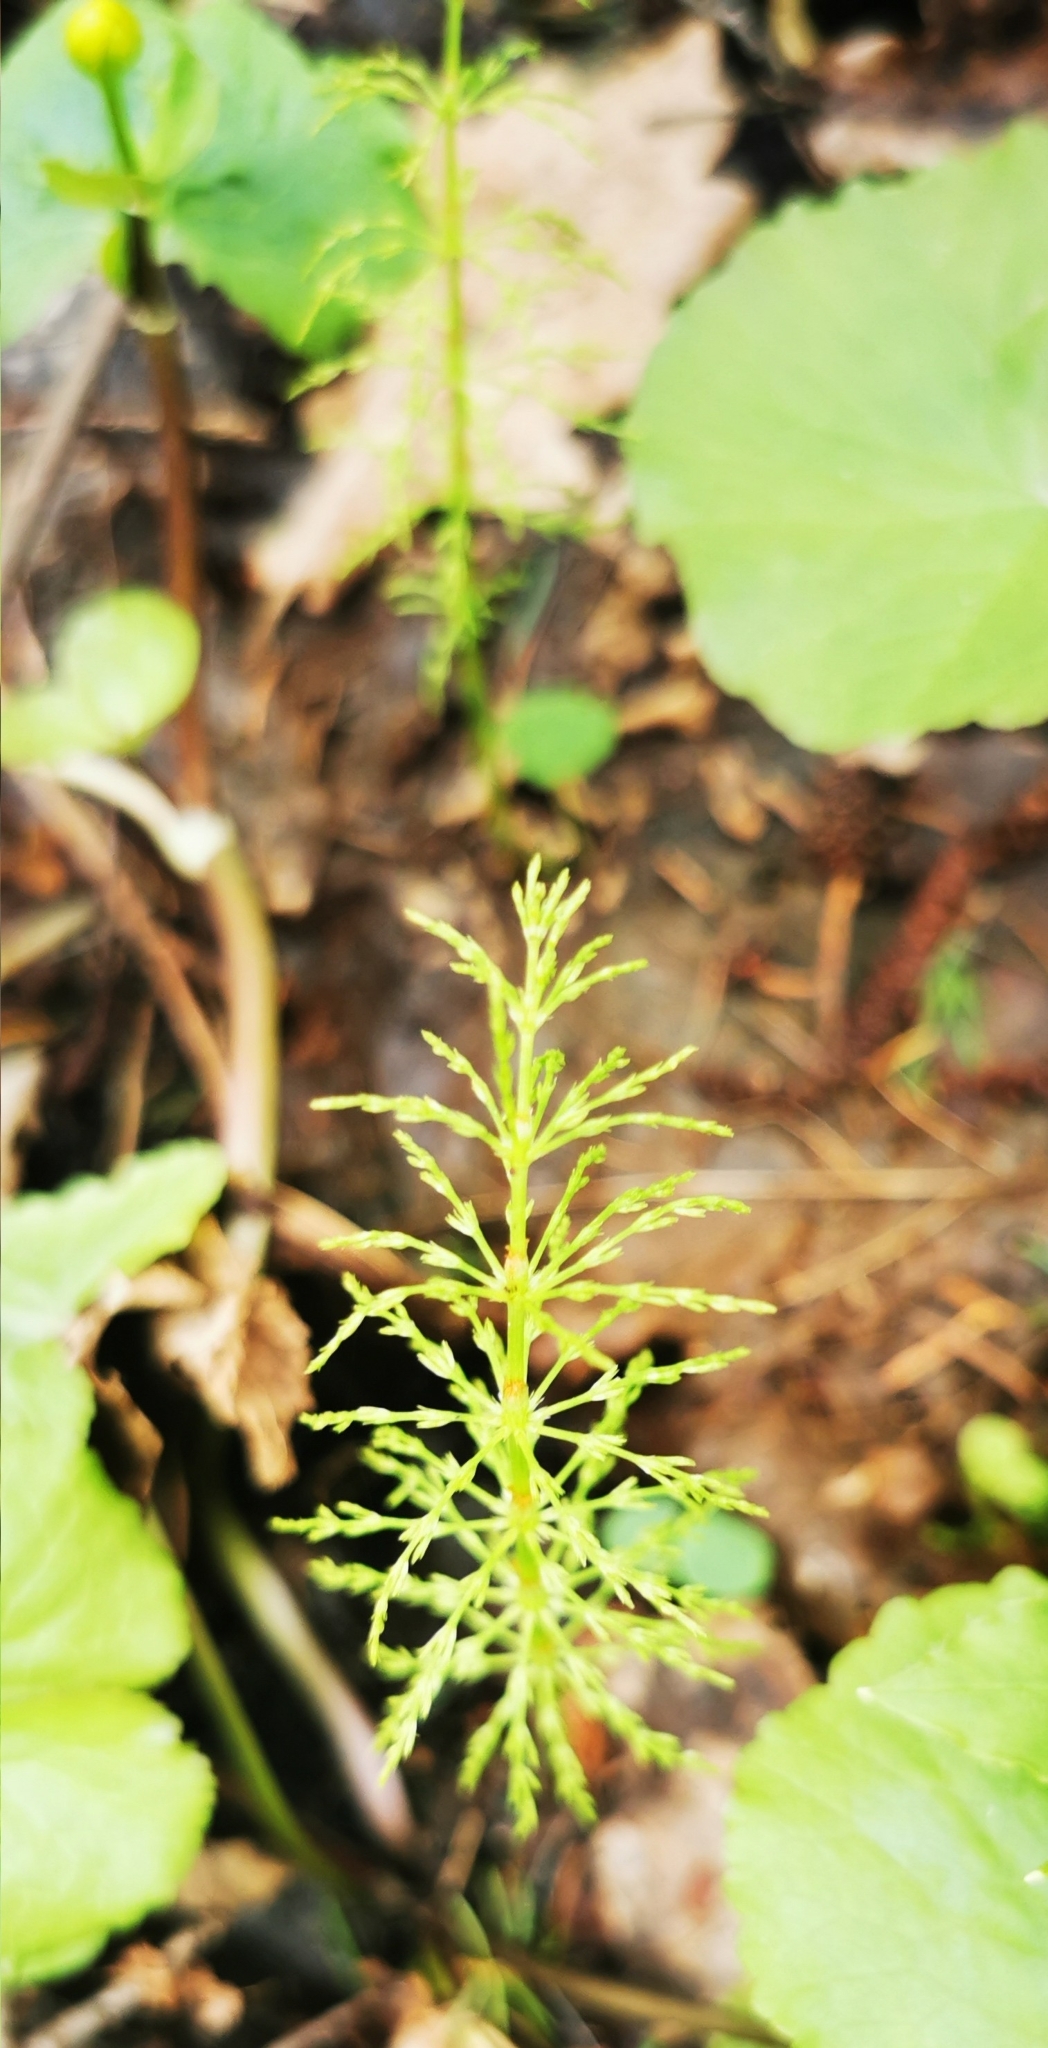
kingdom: Plantae
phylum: Tracheophyta
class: Polypodiopsida
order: Equisetales
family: Equisetaceae
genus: Equisetum
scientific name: Equisetum sylvaticum
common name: Wood horsetail
